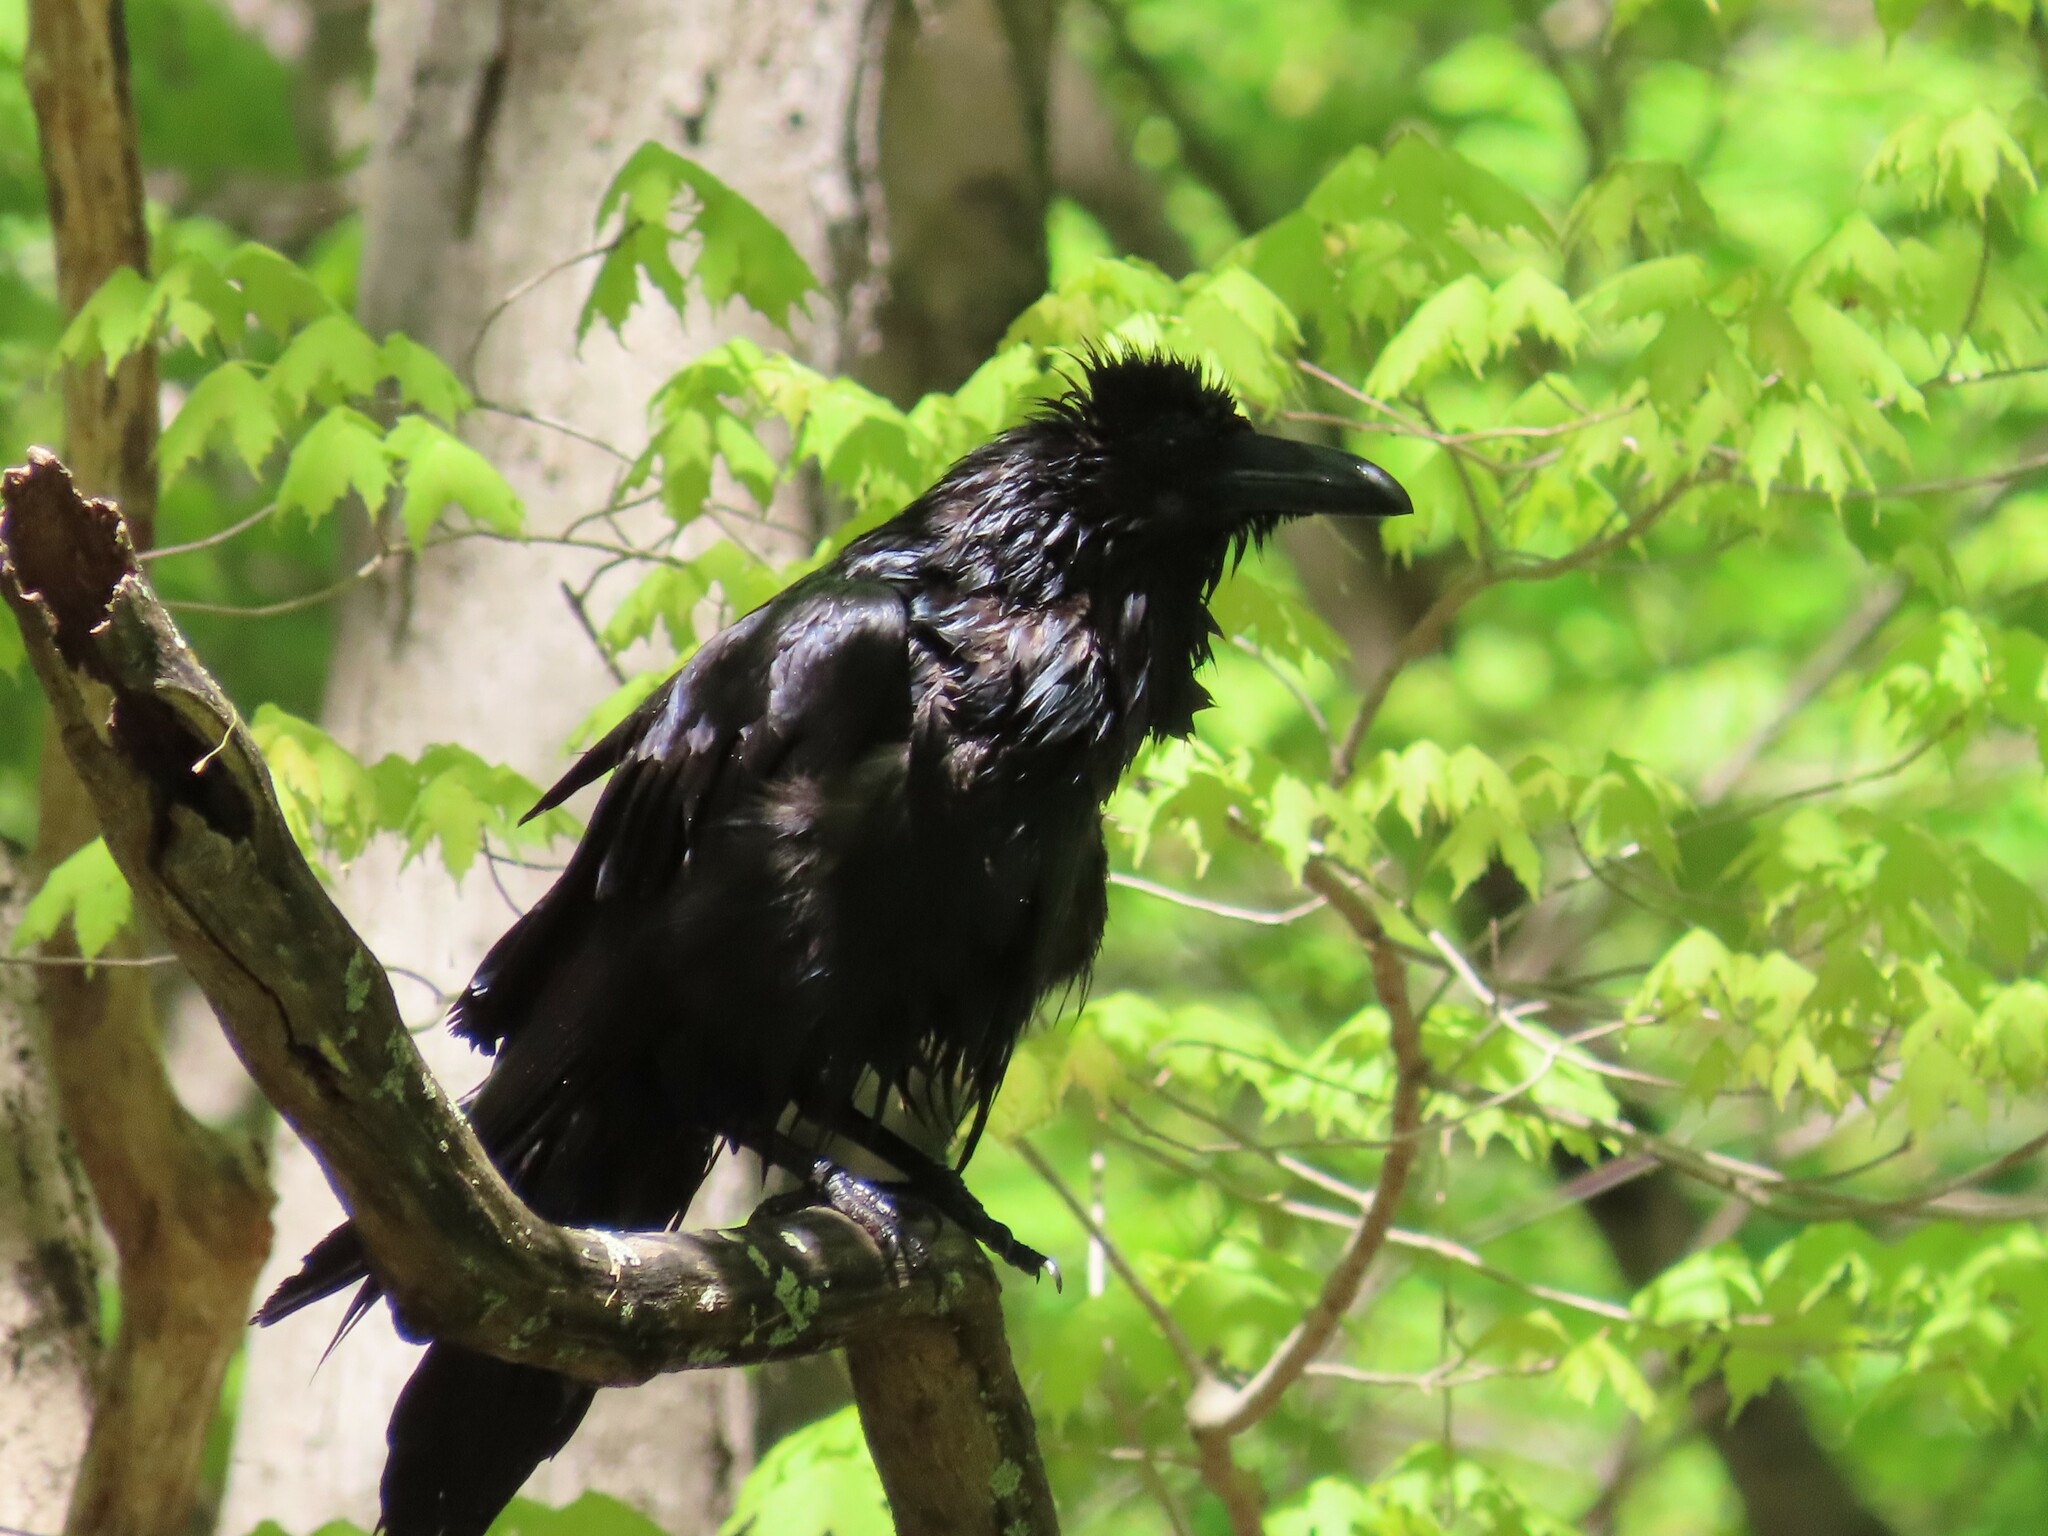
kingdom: Animalia
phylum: Chordata
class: Aves
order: Passeriformes
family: Corvidae
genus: Corvus
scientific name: Corvus corax
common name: Common raven
